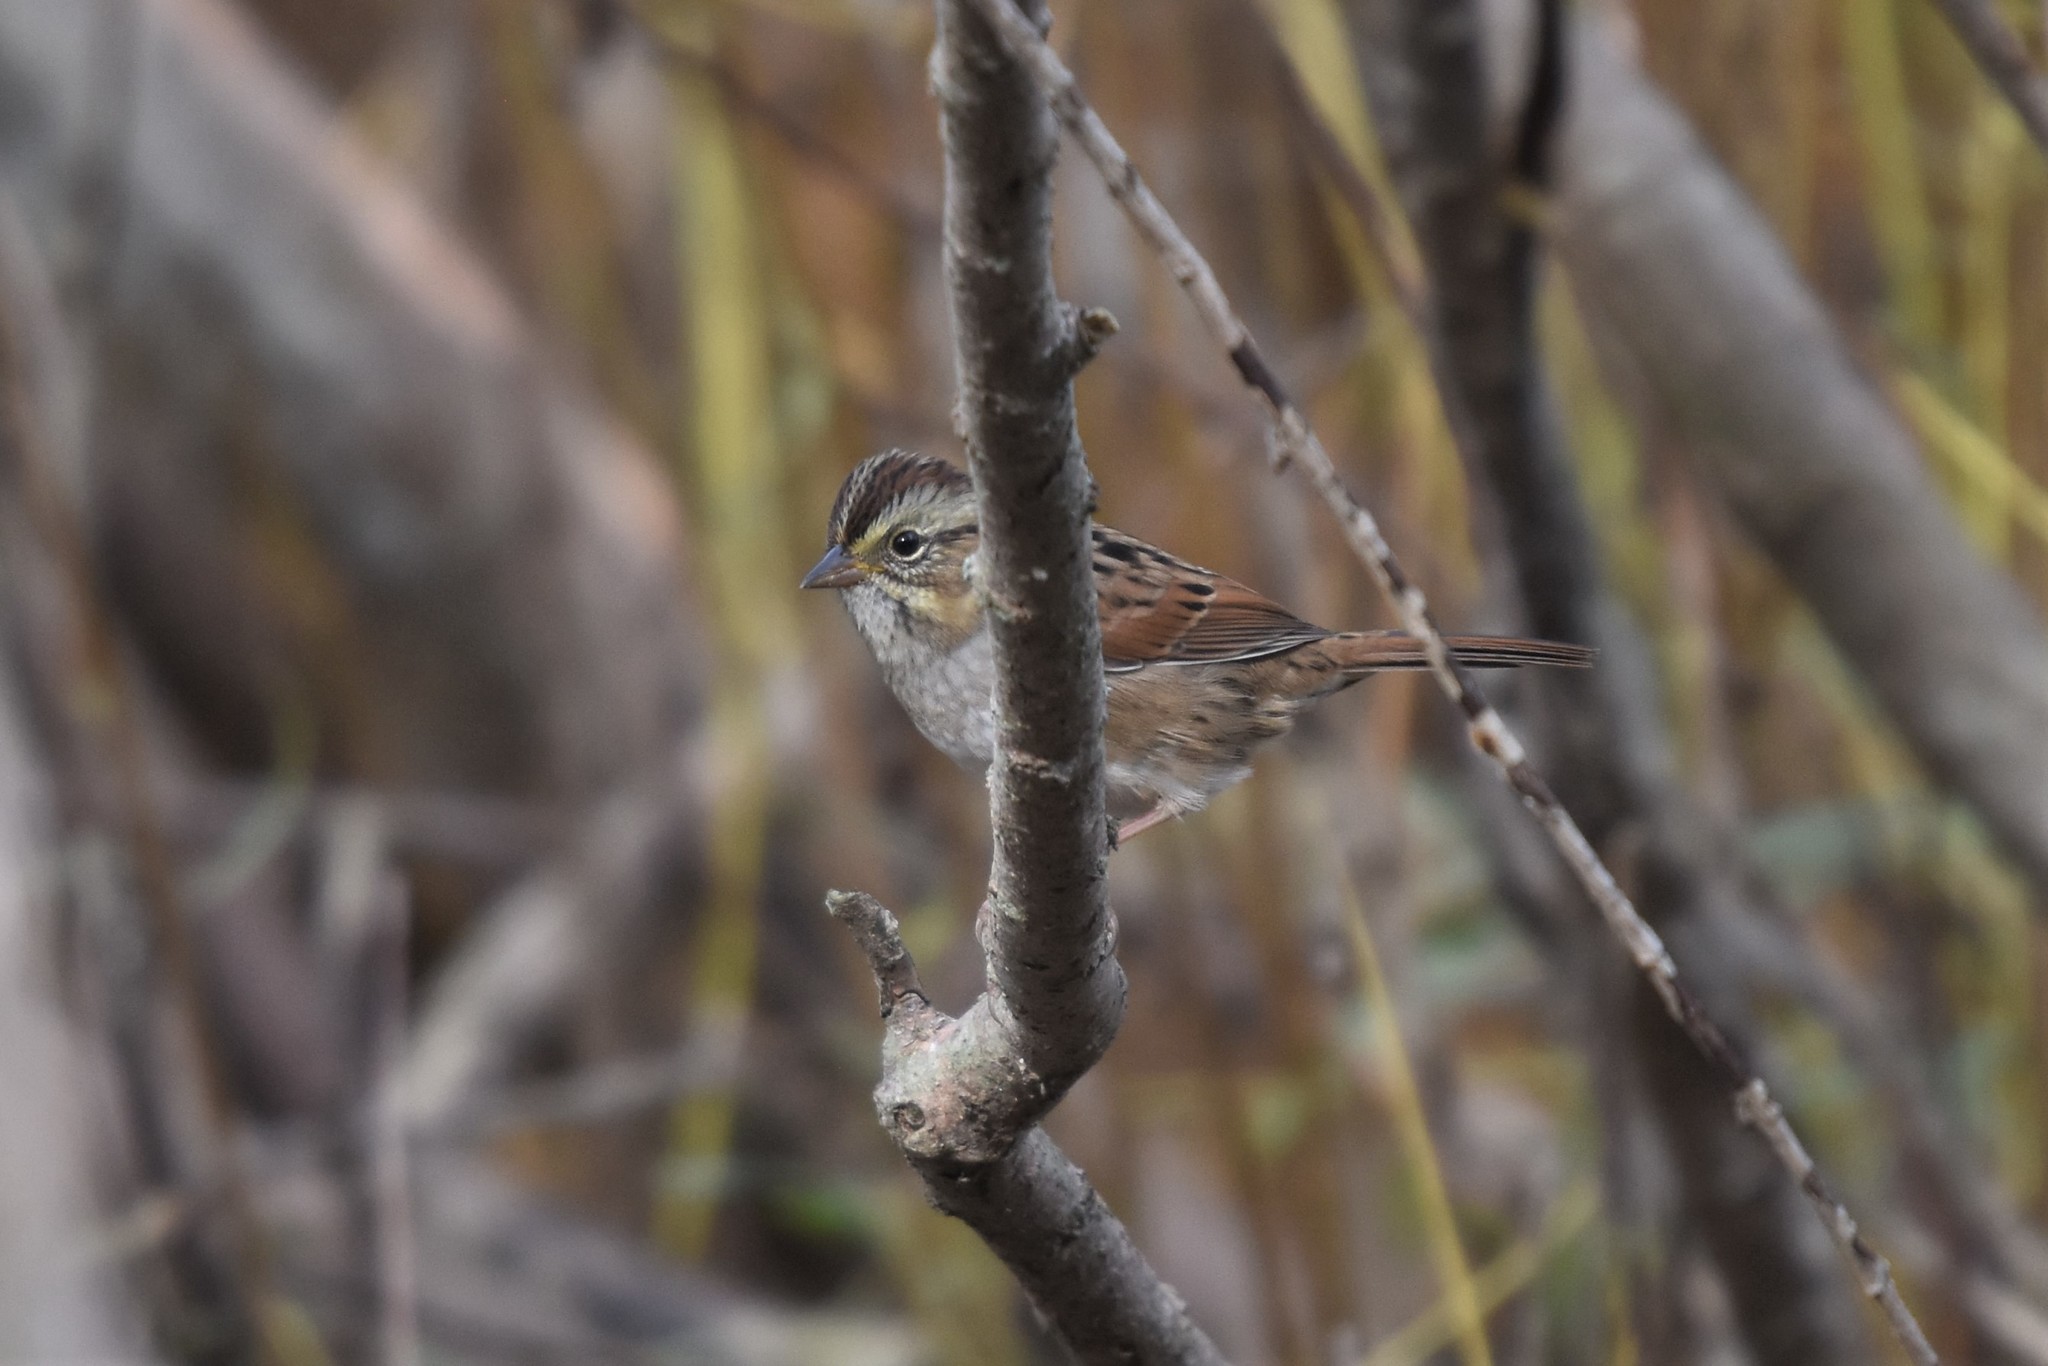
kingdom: Animalia
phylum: Chordata
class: Aves
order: Passeriformes
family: Passerellidae
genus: Melospiza
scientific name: Melospiza georgiana
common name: Swamp sparrow
